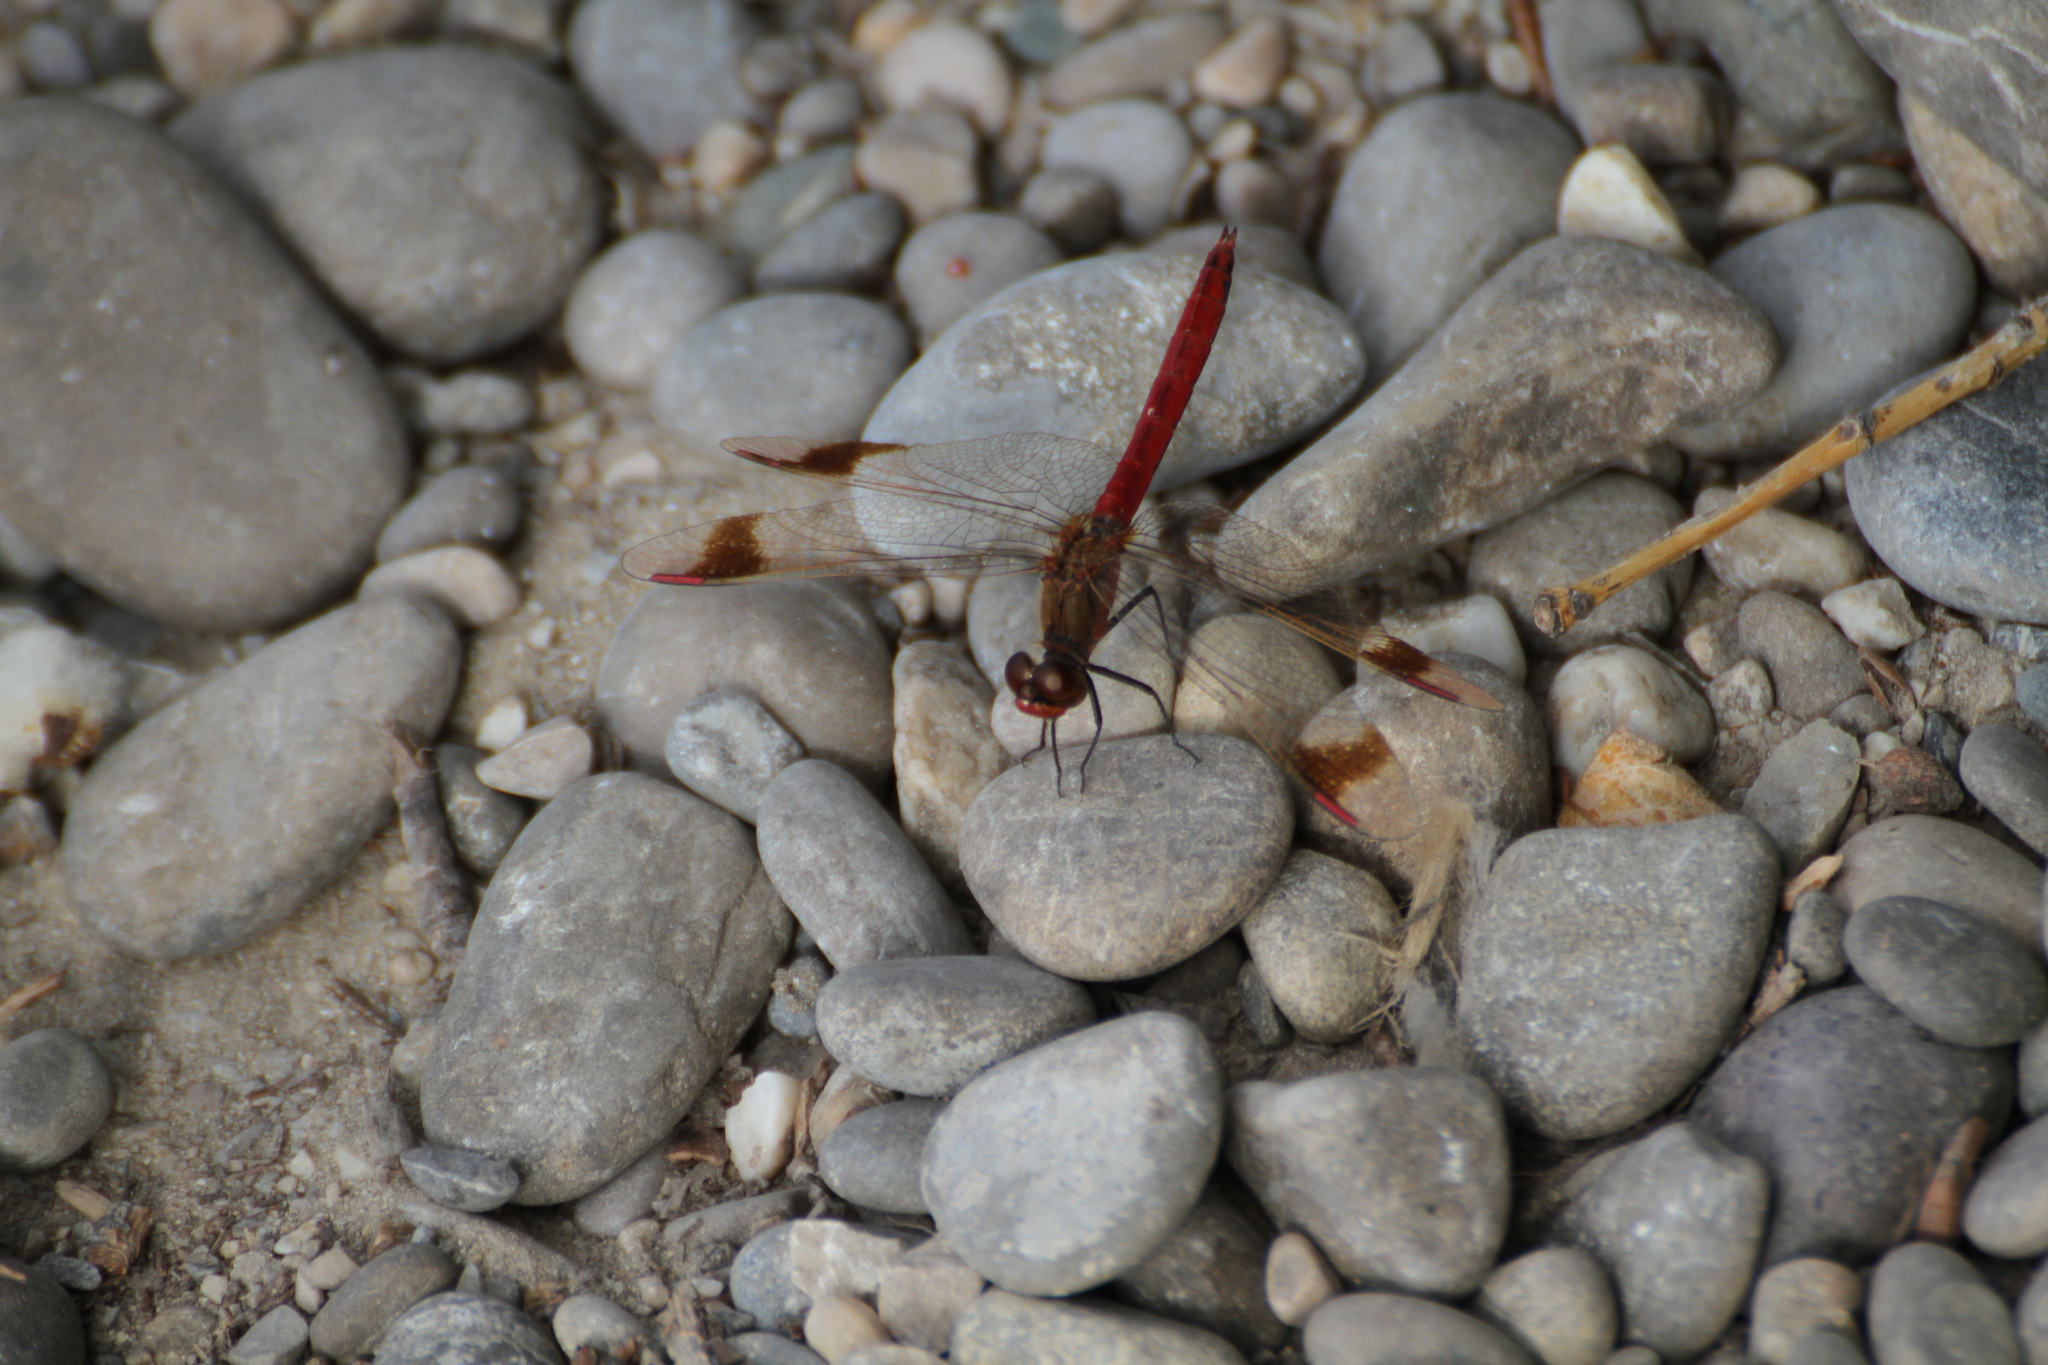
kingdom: Animalia
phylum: Arthropoda
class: Insecta
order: Odonata
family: Libellulidae
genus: Sympetrum
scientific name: Sympetrum pedemontanum
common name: Banded darter
